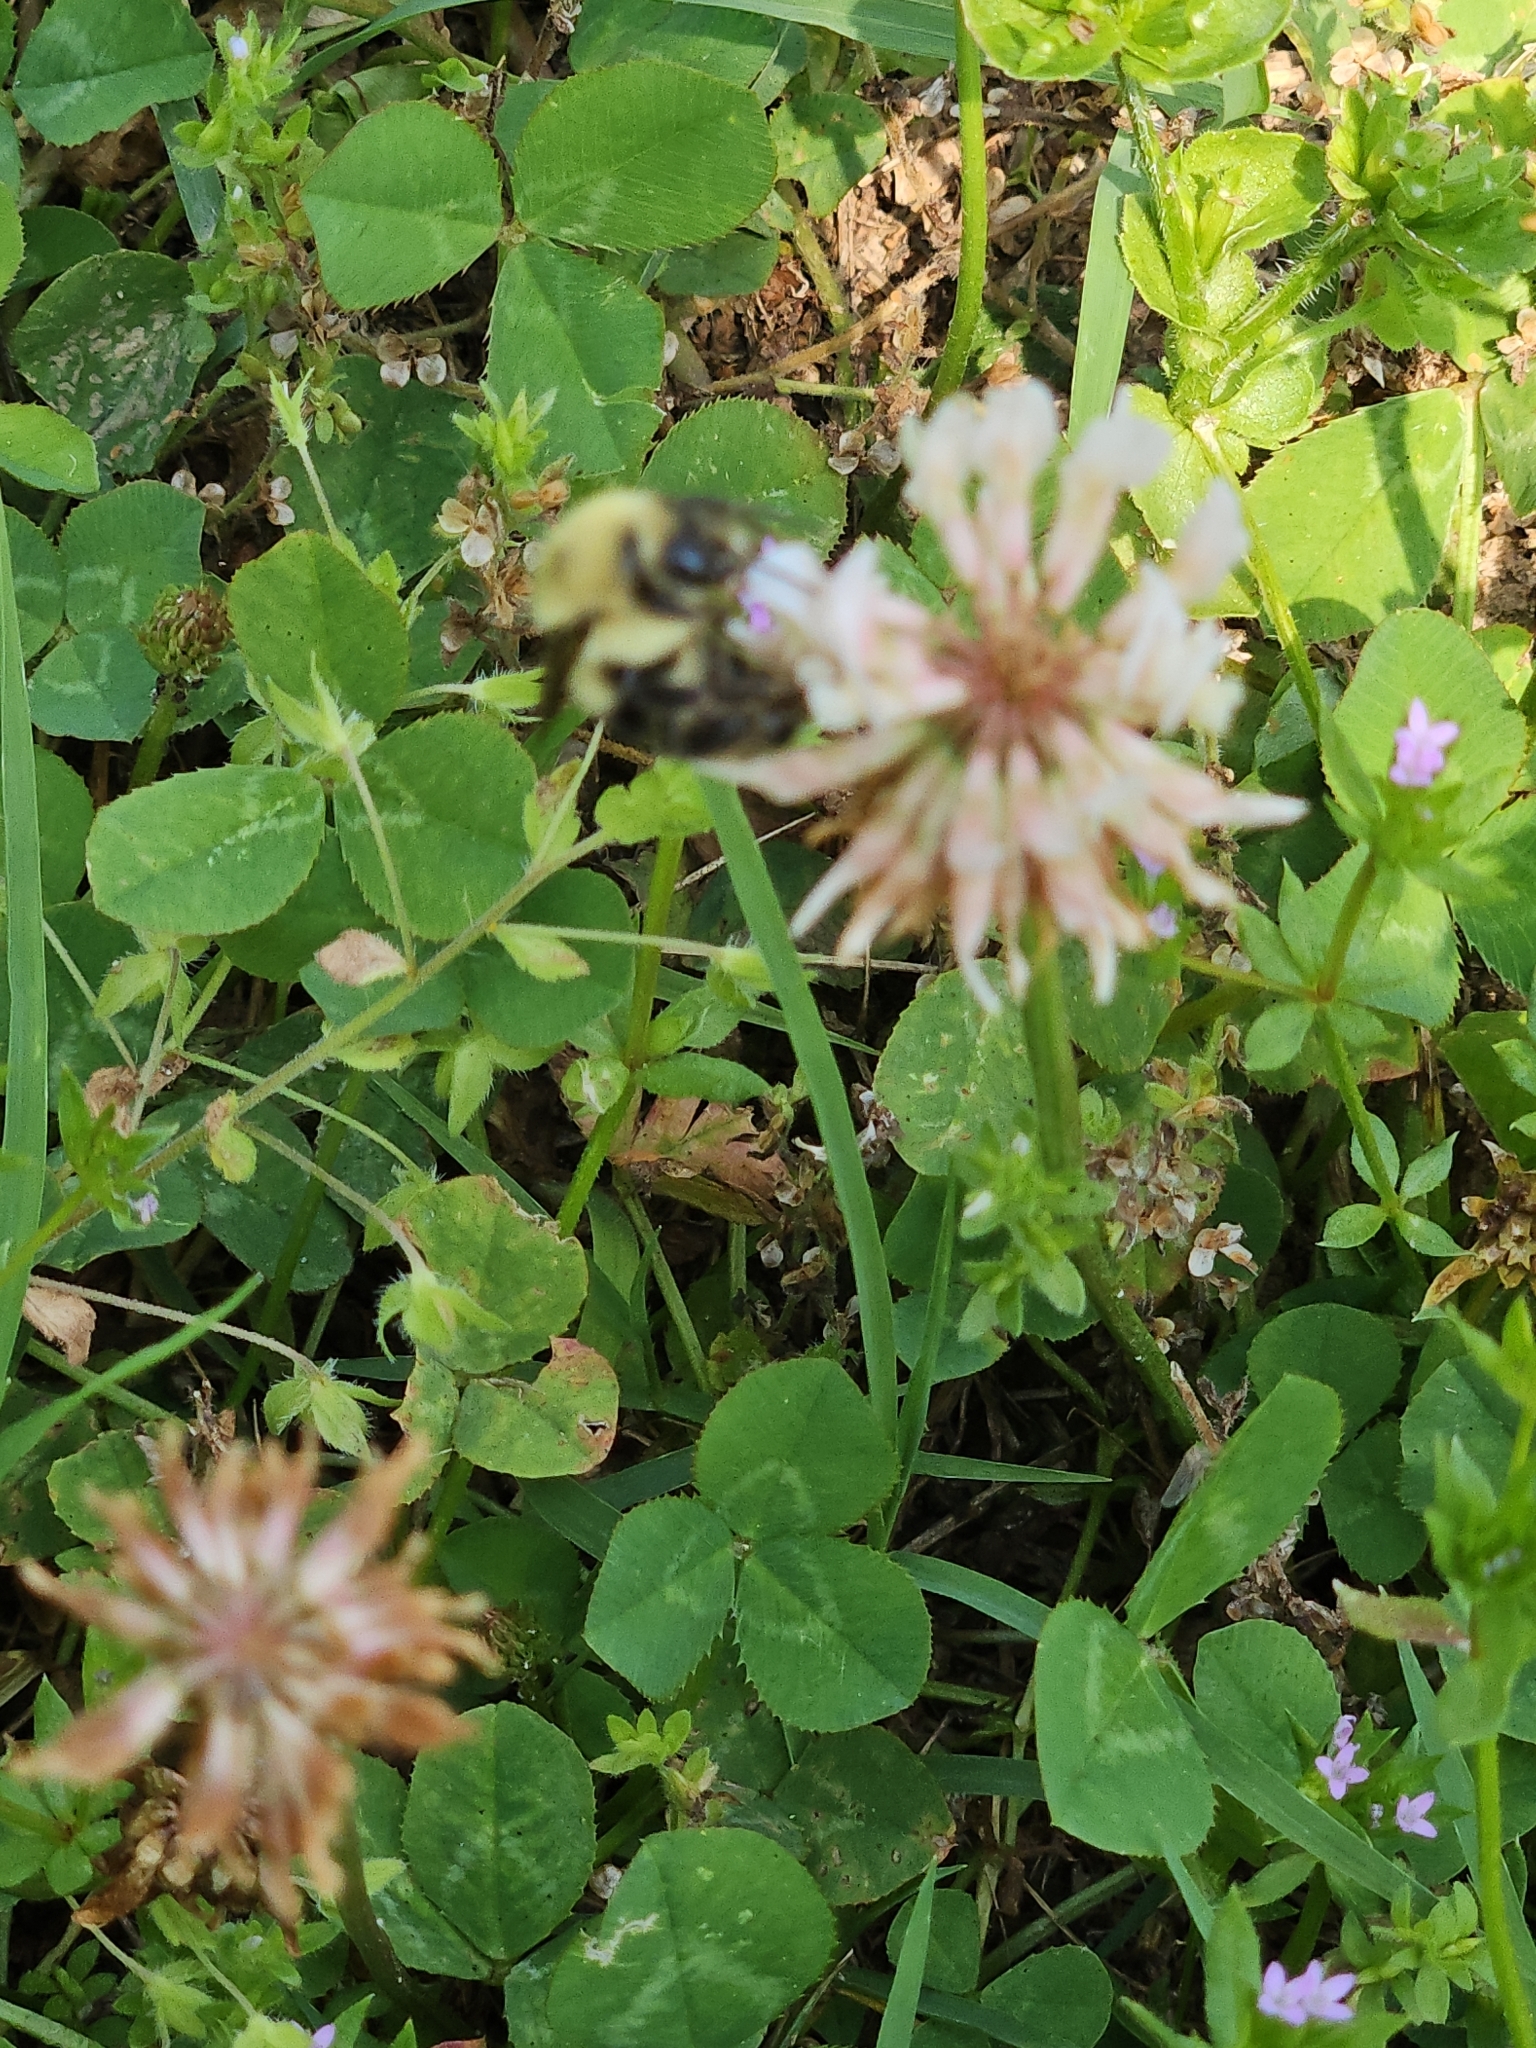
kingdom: Animalia
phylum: Arthropoda
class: Insecta
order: Hymenoptera
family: Apidae
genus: Bombus
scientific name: Bombus bimaculatus
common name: Two-spotted bumble bee
